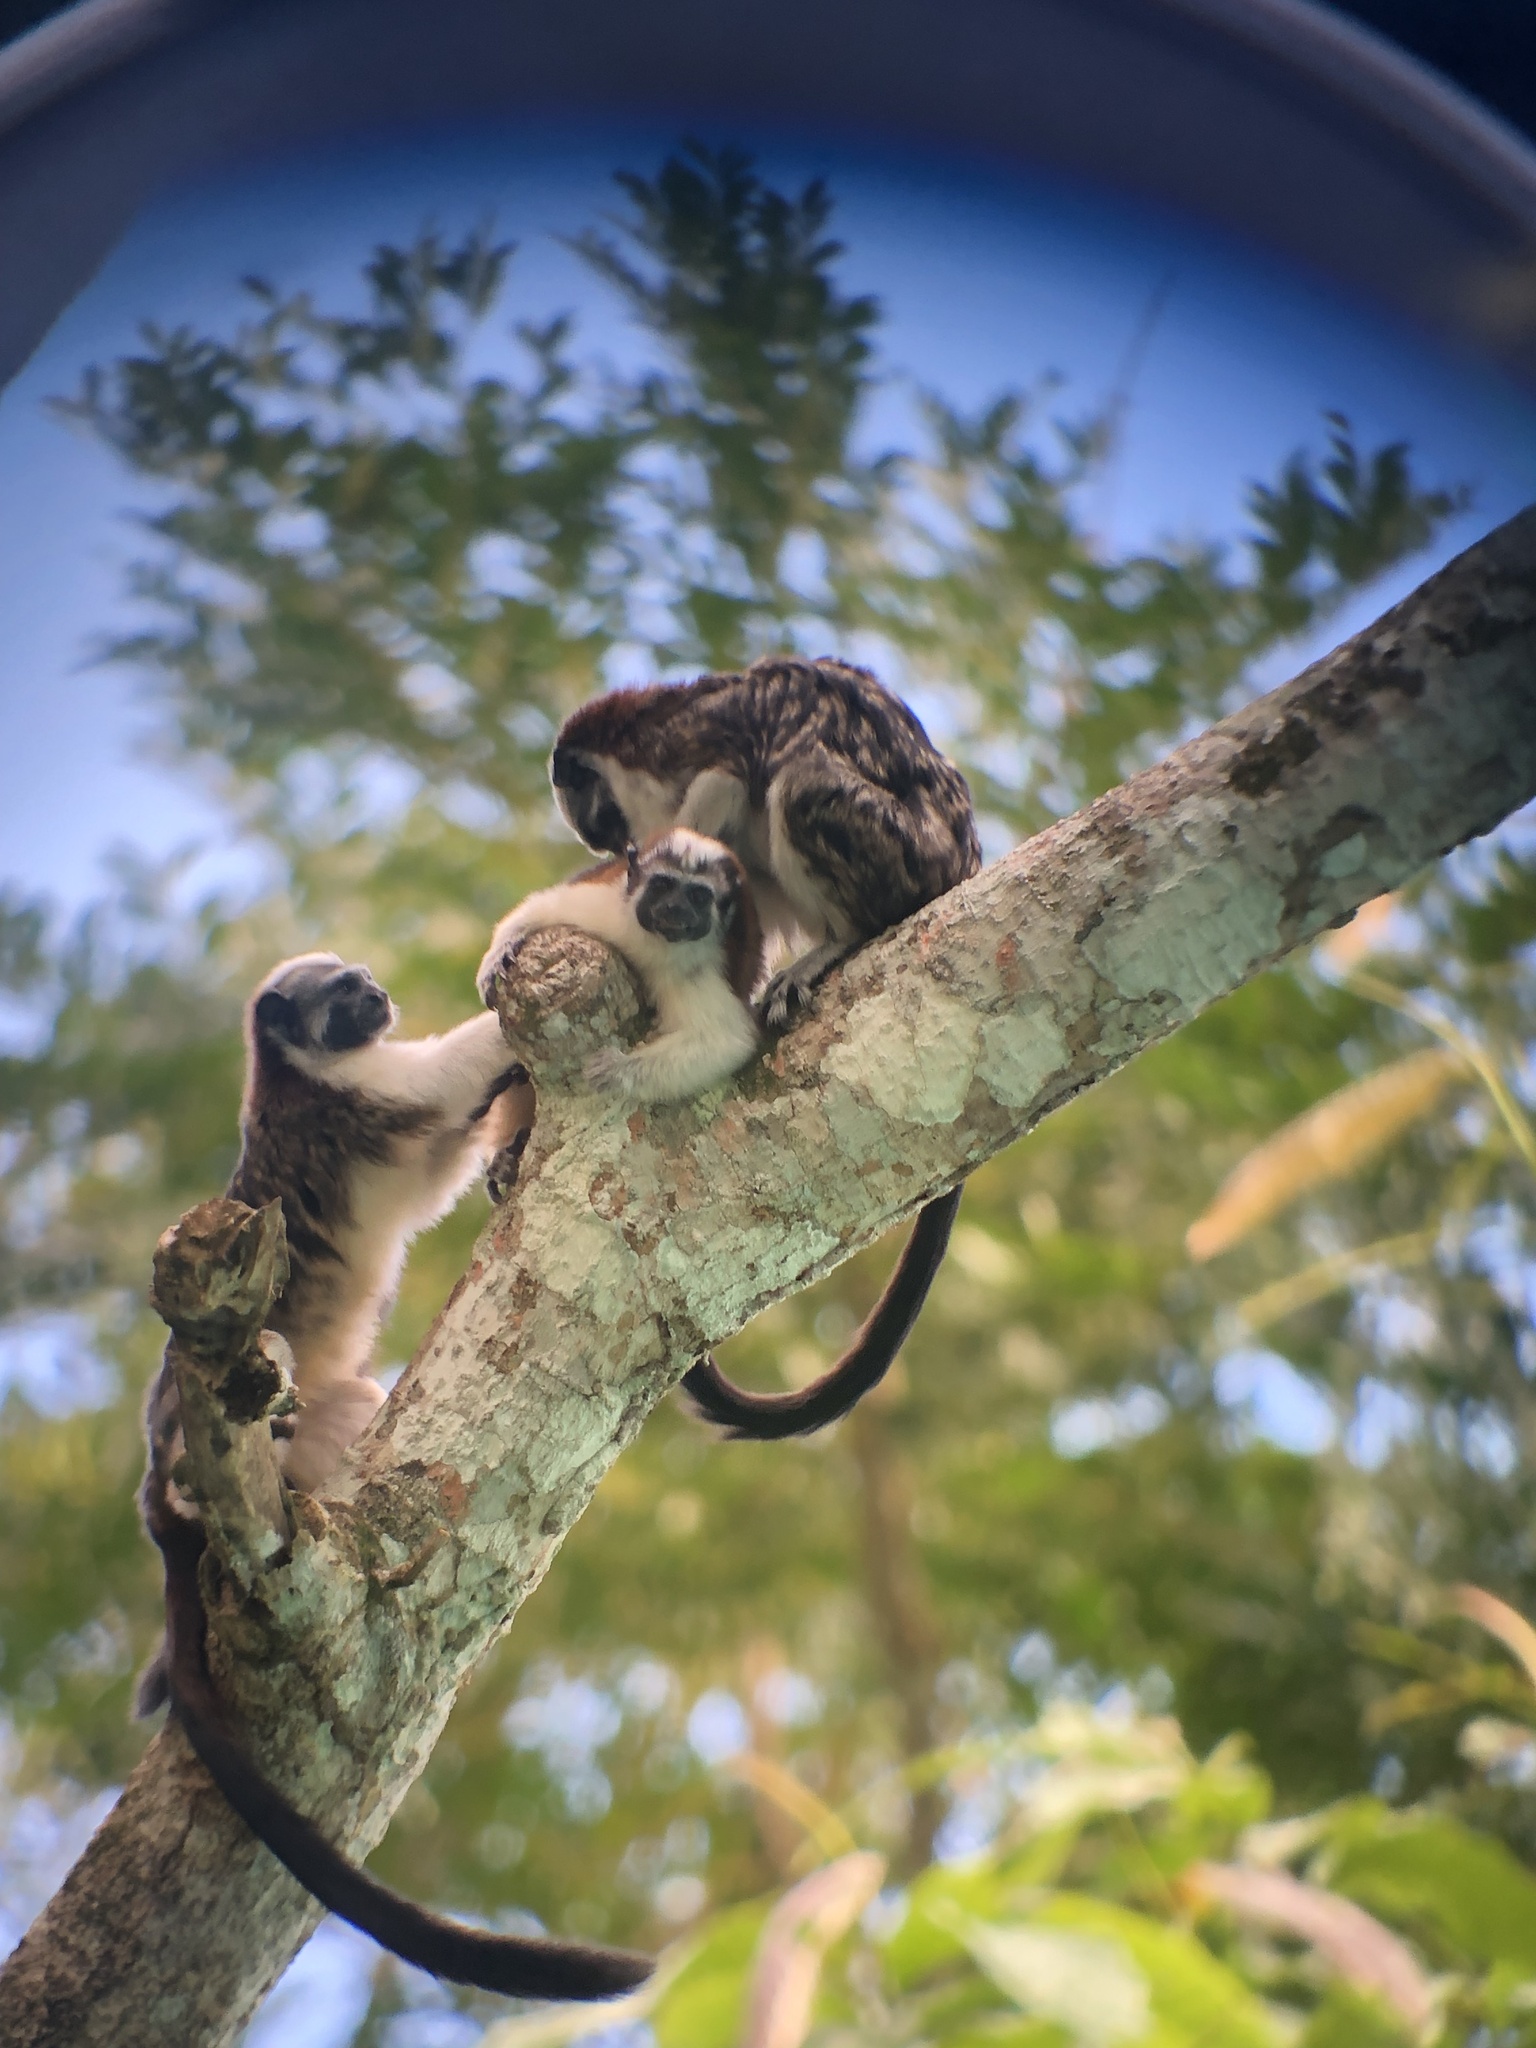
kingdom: Animalia
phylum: Chordata
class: Mammalia
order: Primates
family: Callitrichidae
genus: Saguinus
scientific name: Saguinus geoffroyi
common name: Geoffroy s tamarin
